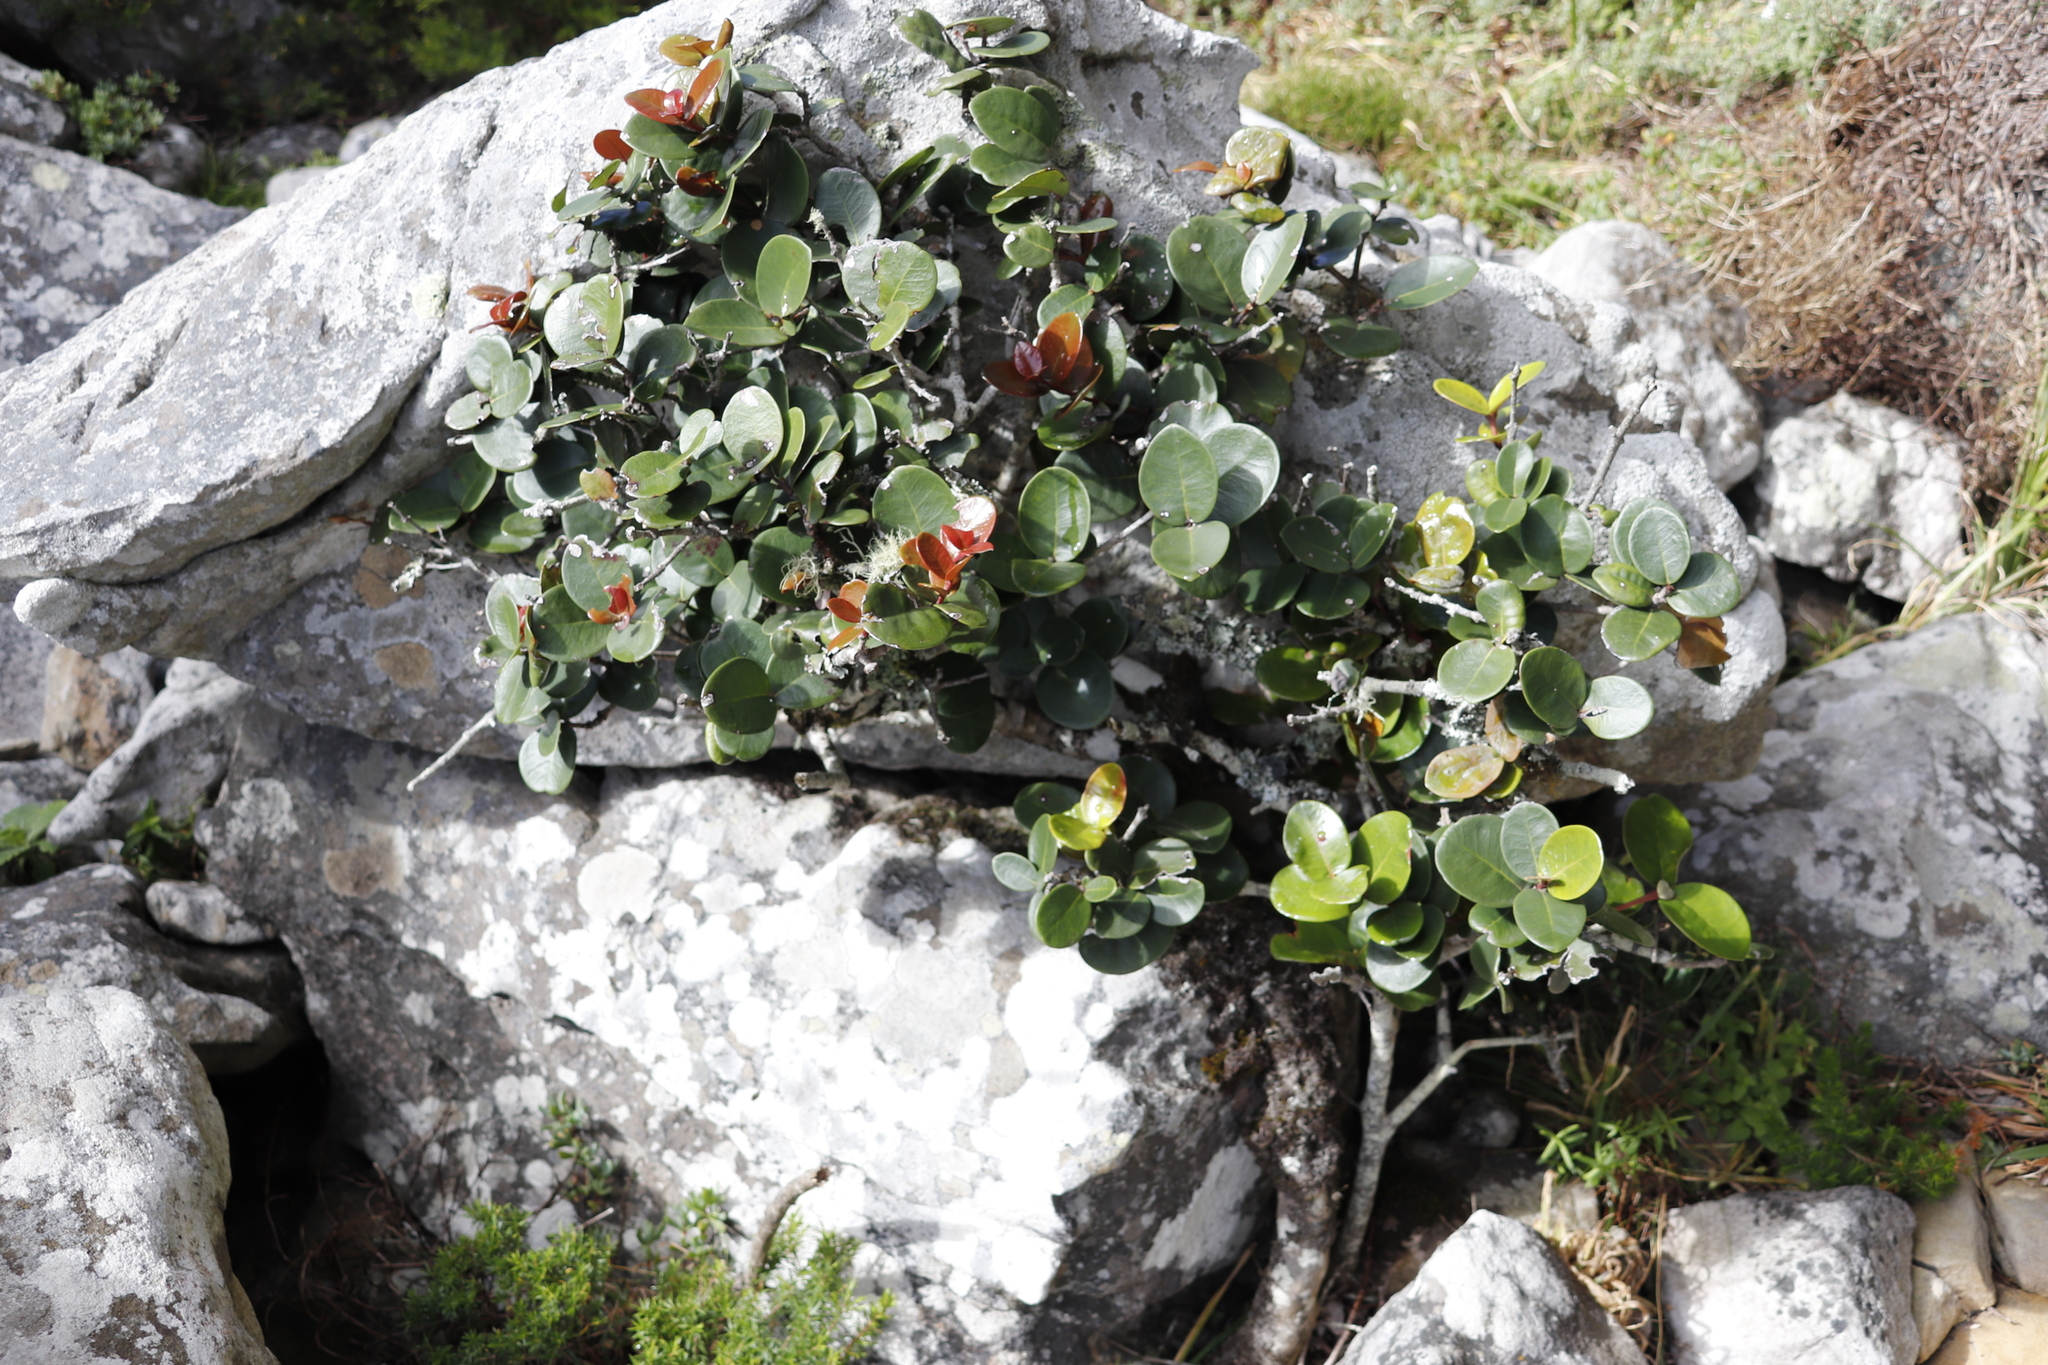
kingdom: Plantae
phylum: Tracheophyta
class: Magnoliopsida
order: Celastrales
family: Celastraceae
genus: Maurocenia
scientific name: Maurocenia frangula
